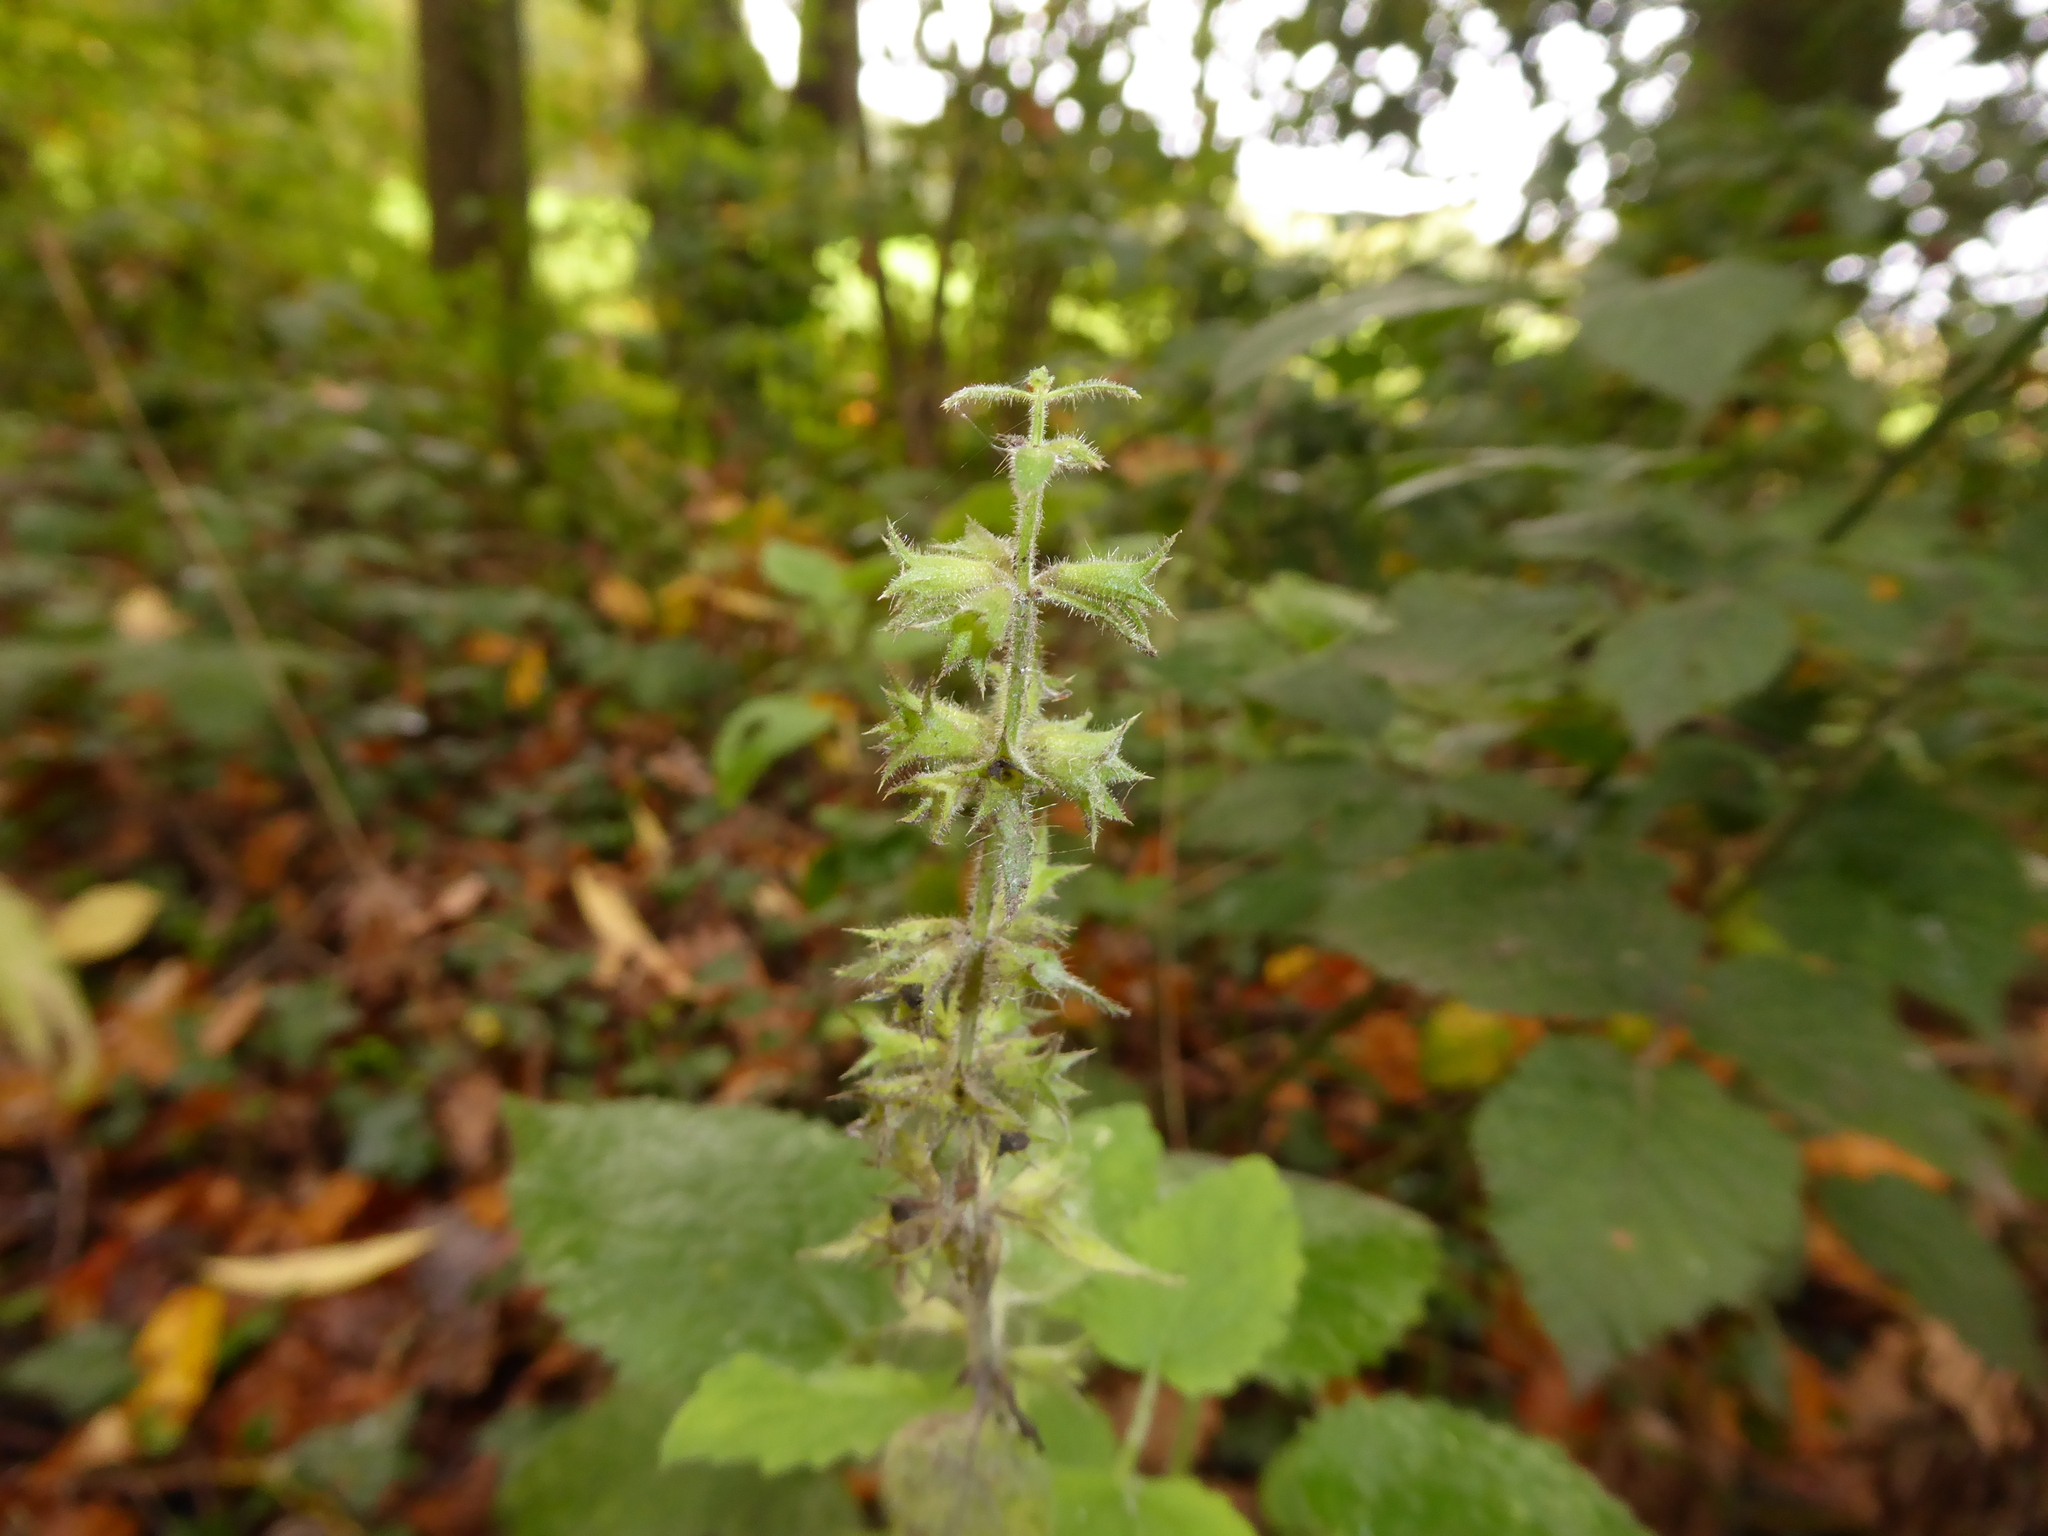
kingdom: Plantae
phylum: Tracheophyta
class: Magnoliopsida
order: Lamiales
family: Lamiaceae
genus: Stachys
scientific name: Stachys sylvatica
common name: Hedge woundwort
